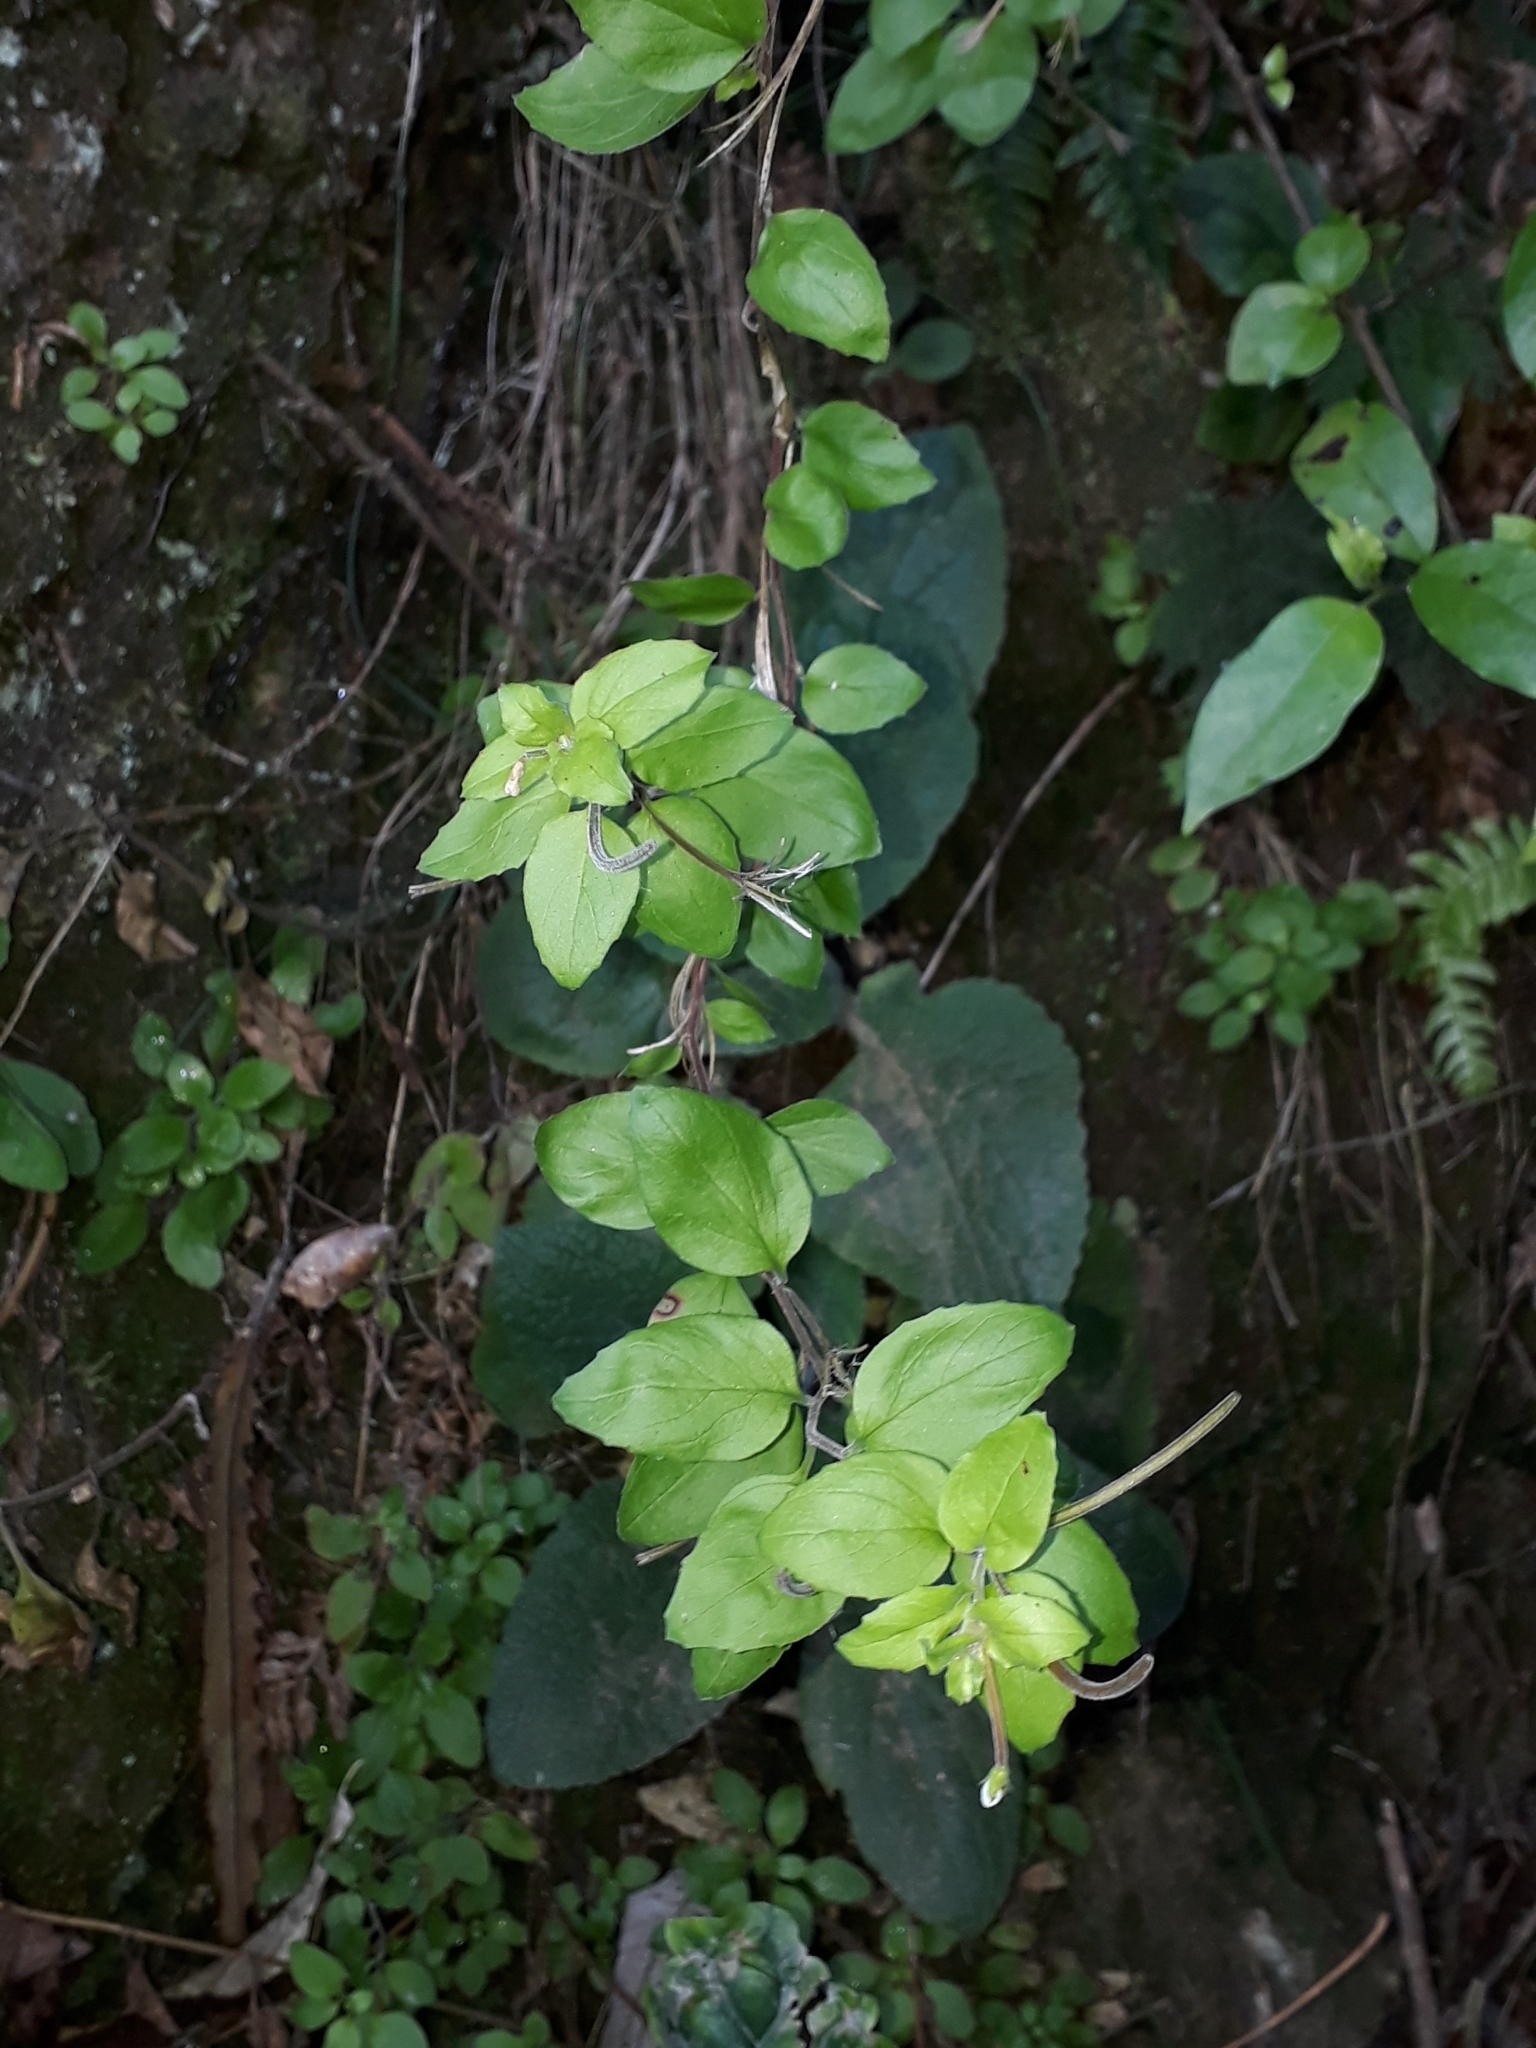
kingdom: Plantae
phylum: Tracheophyta
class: Magnoliopsida
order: Myrtales
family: Onagraceae
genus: Epilobium
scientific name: Epilobium pubens
